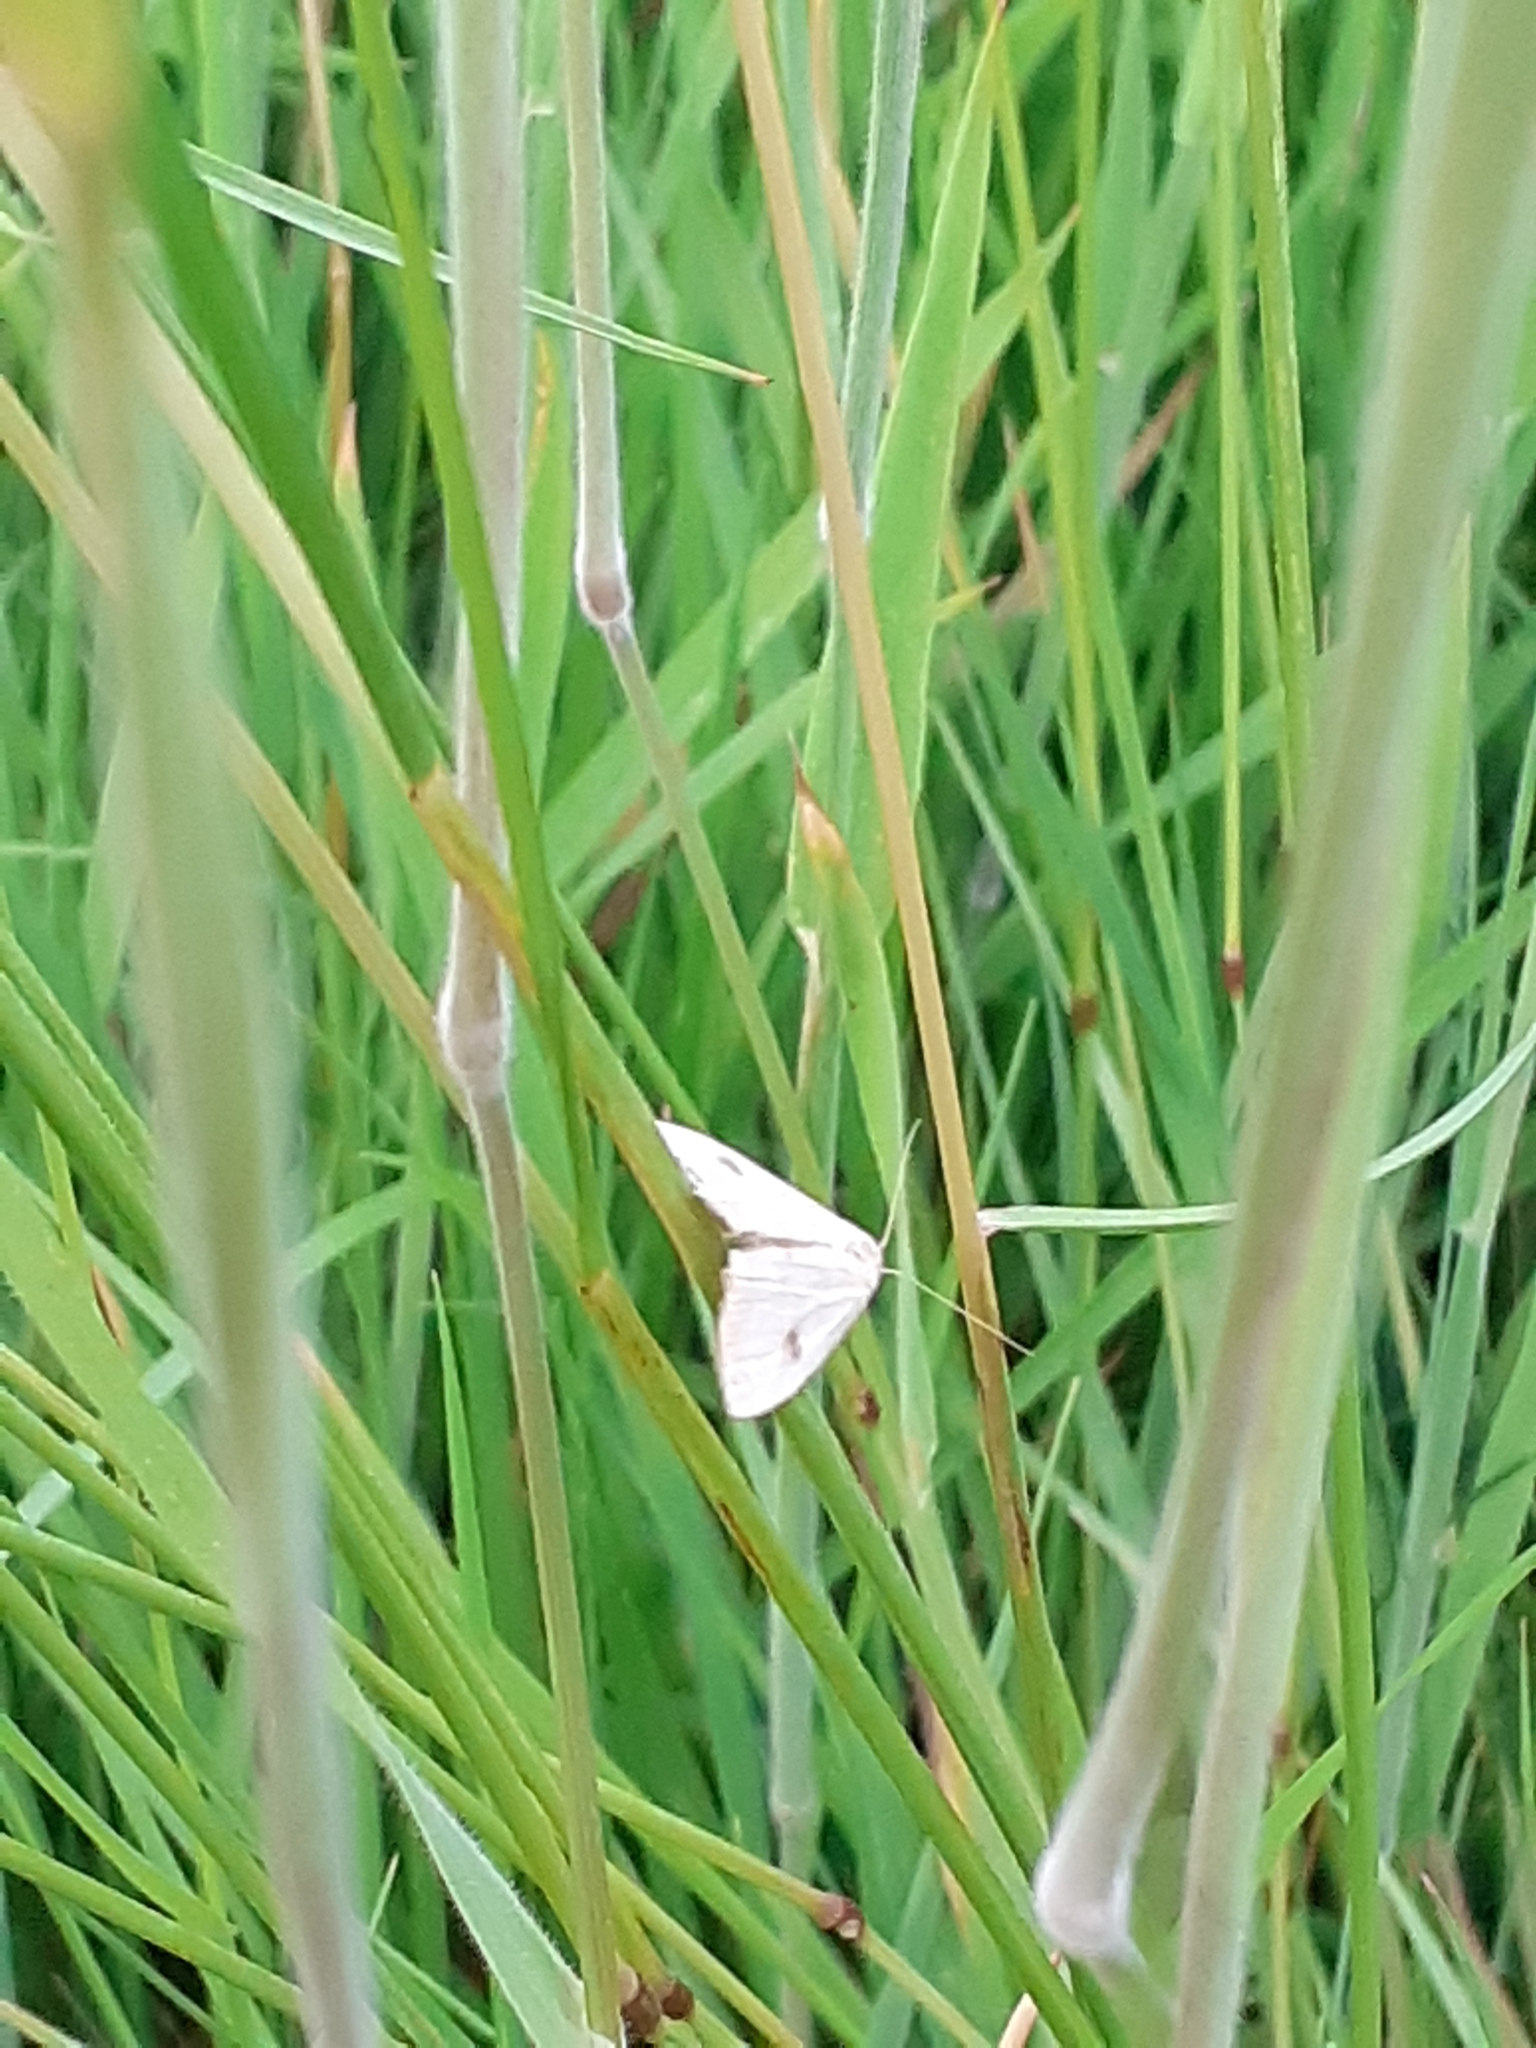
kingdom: Animalia
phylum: Arthropoda
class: Insecta
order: Lepidoptera
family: Erebidae
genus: Rivula
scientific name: Rivula sericealis
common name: Straw dot
